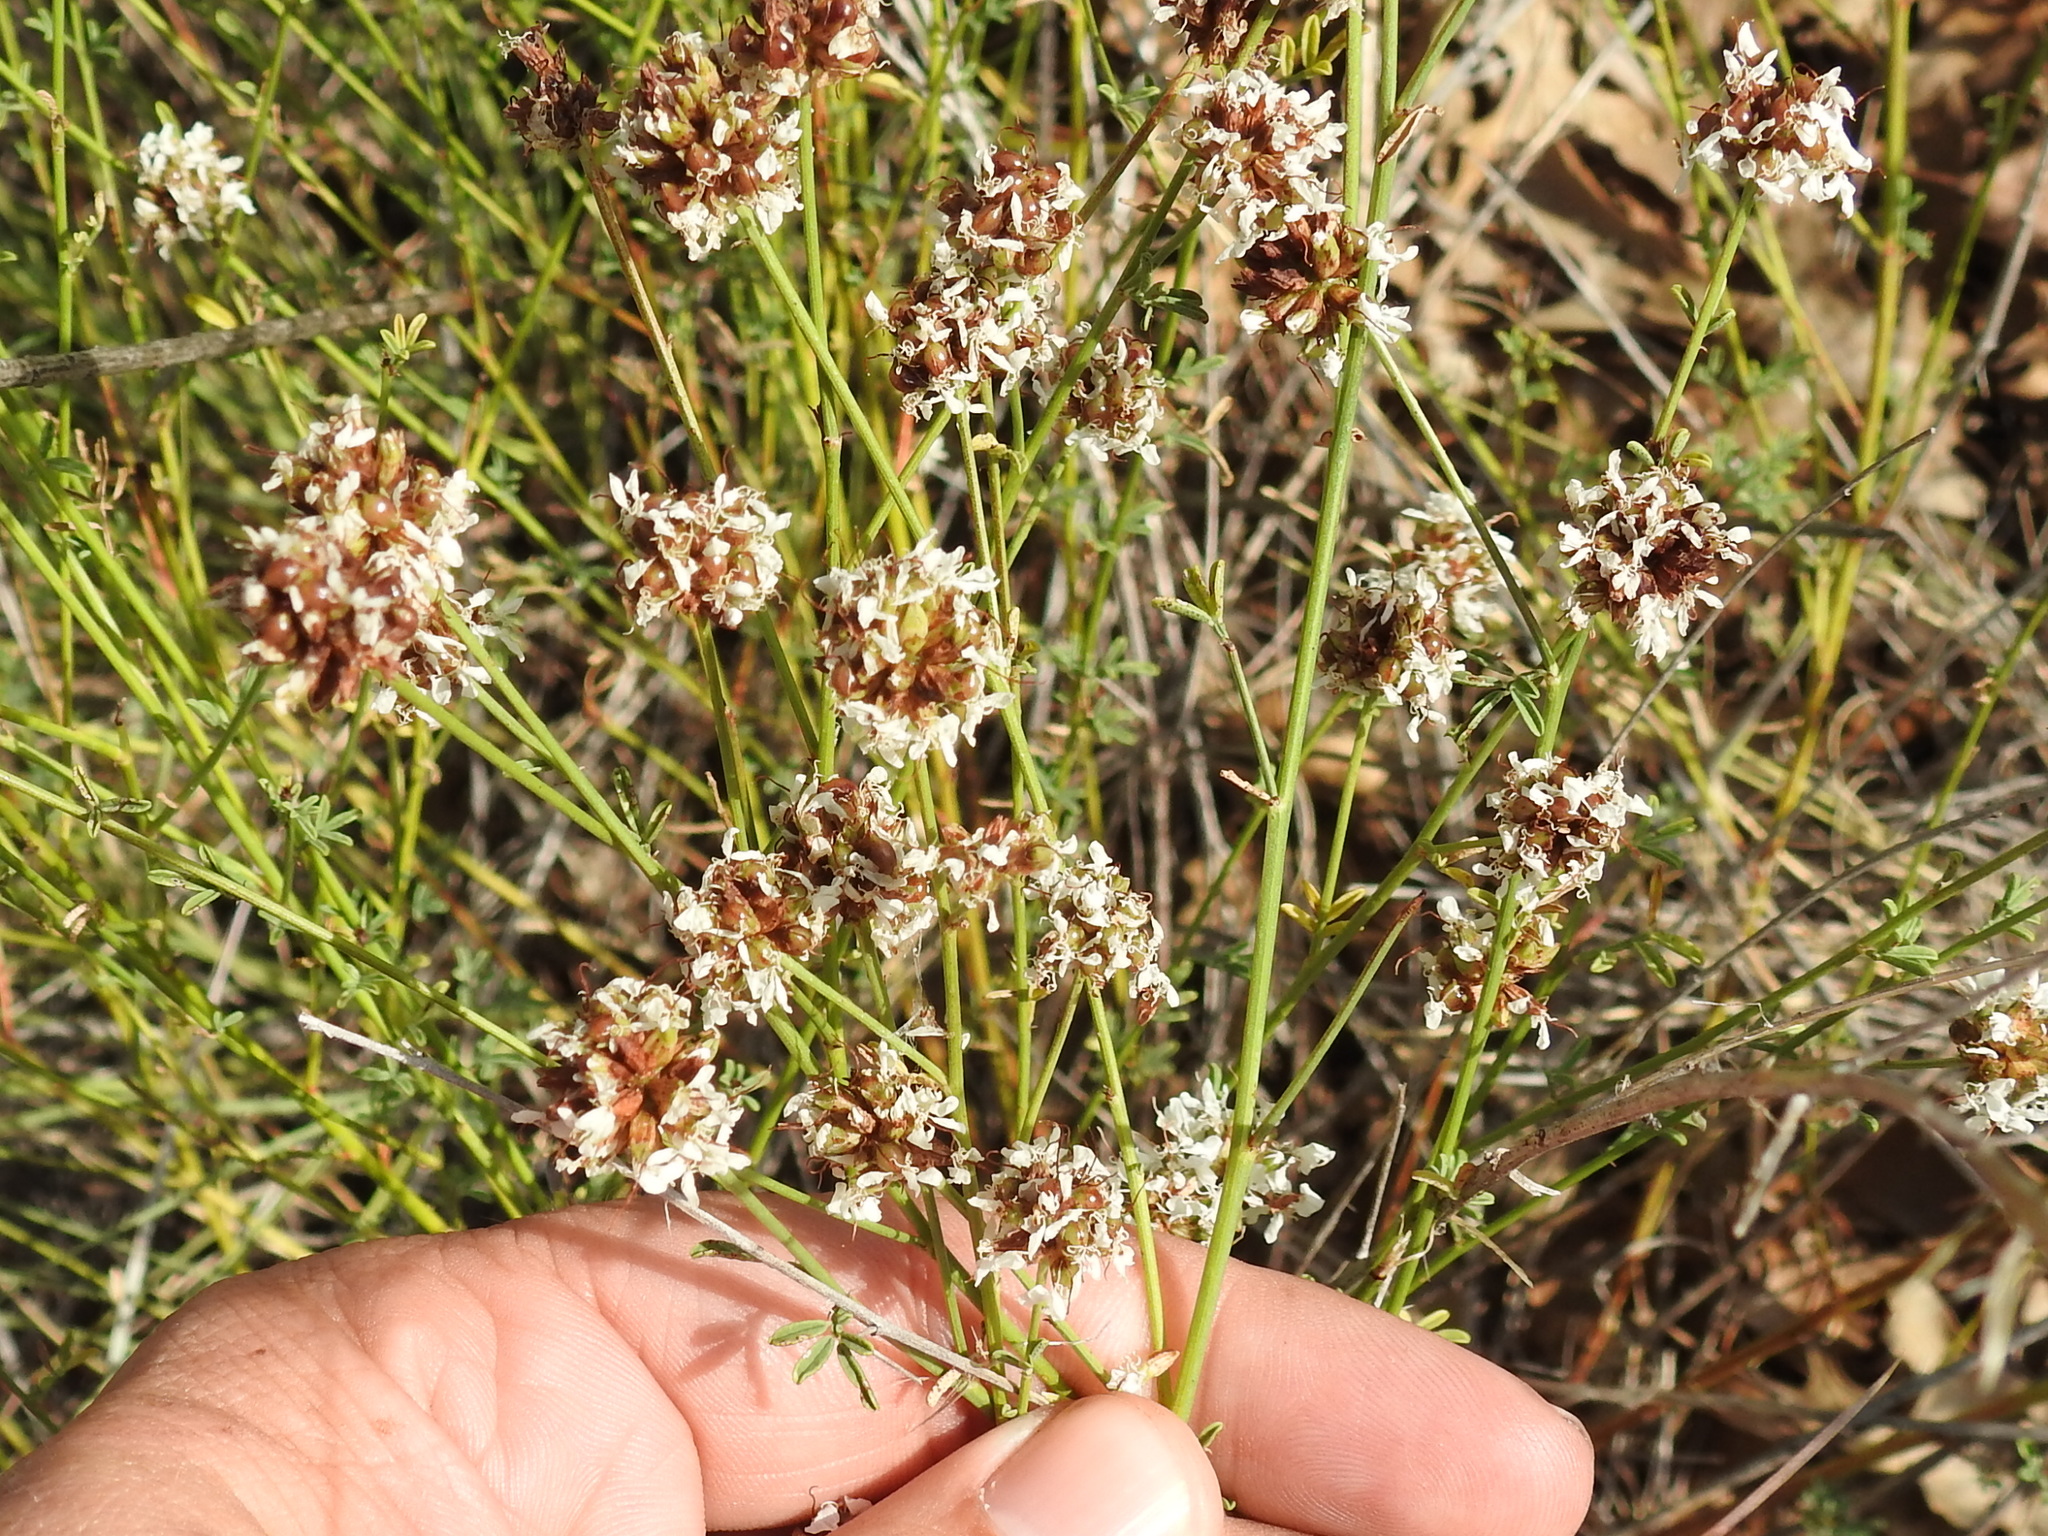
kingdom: Plantae
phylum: Tracheophyta
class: Magnoliopsida
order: Fabales
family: Fabaceae
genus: Dalea
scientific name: Dalea multiflora
